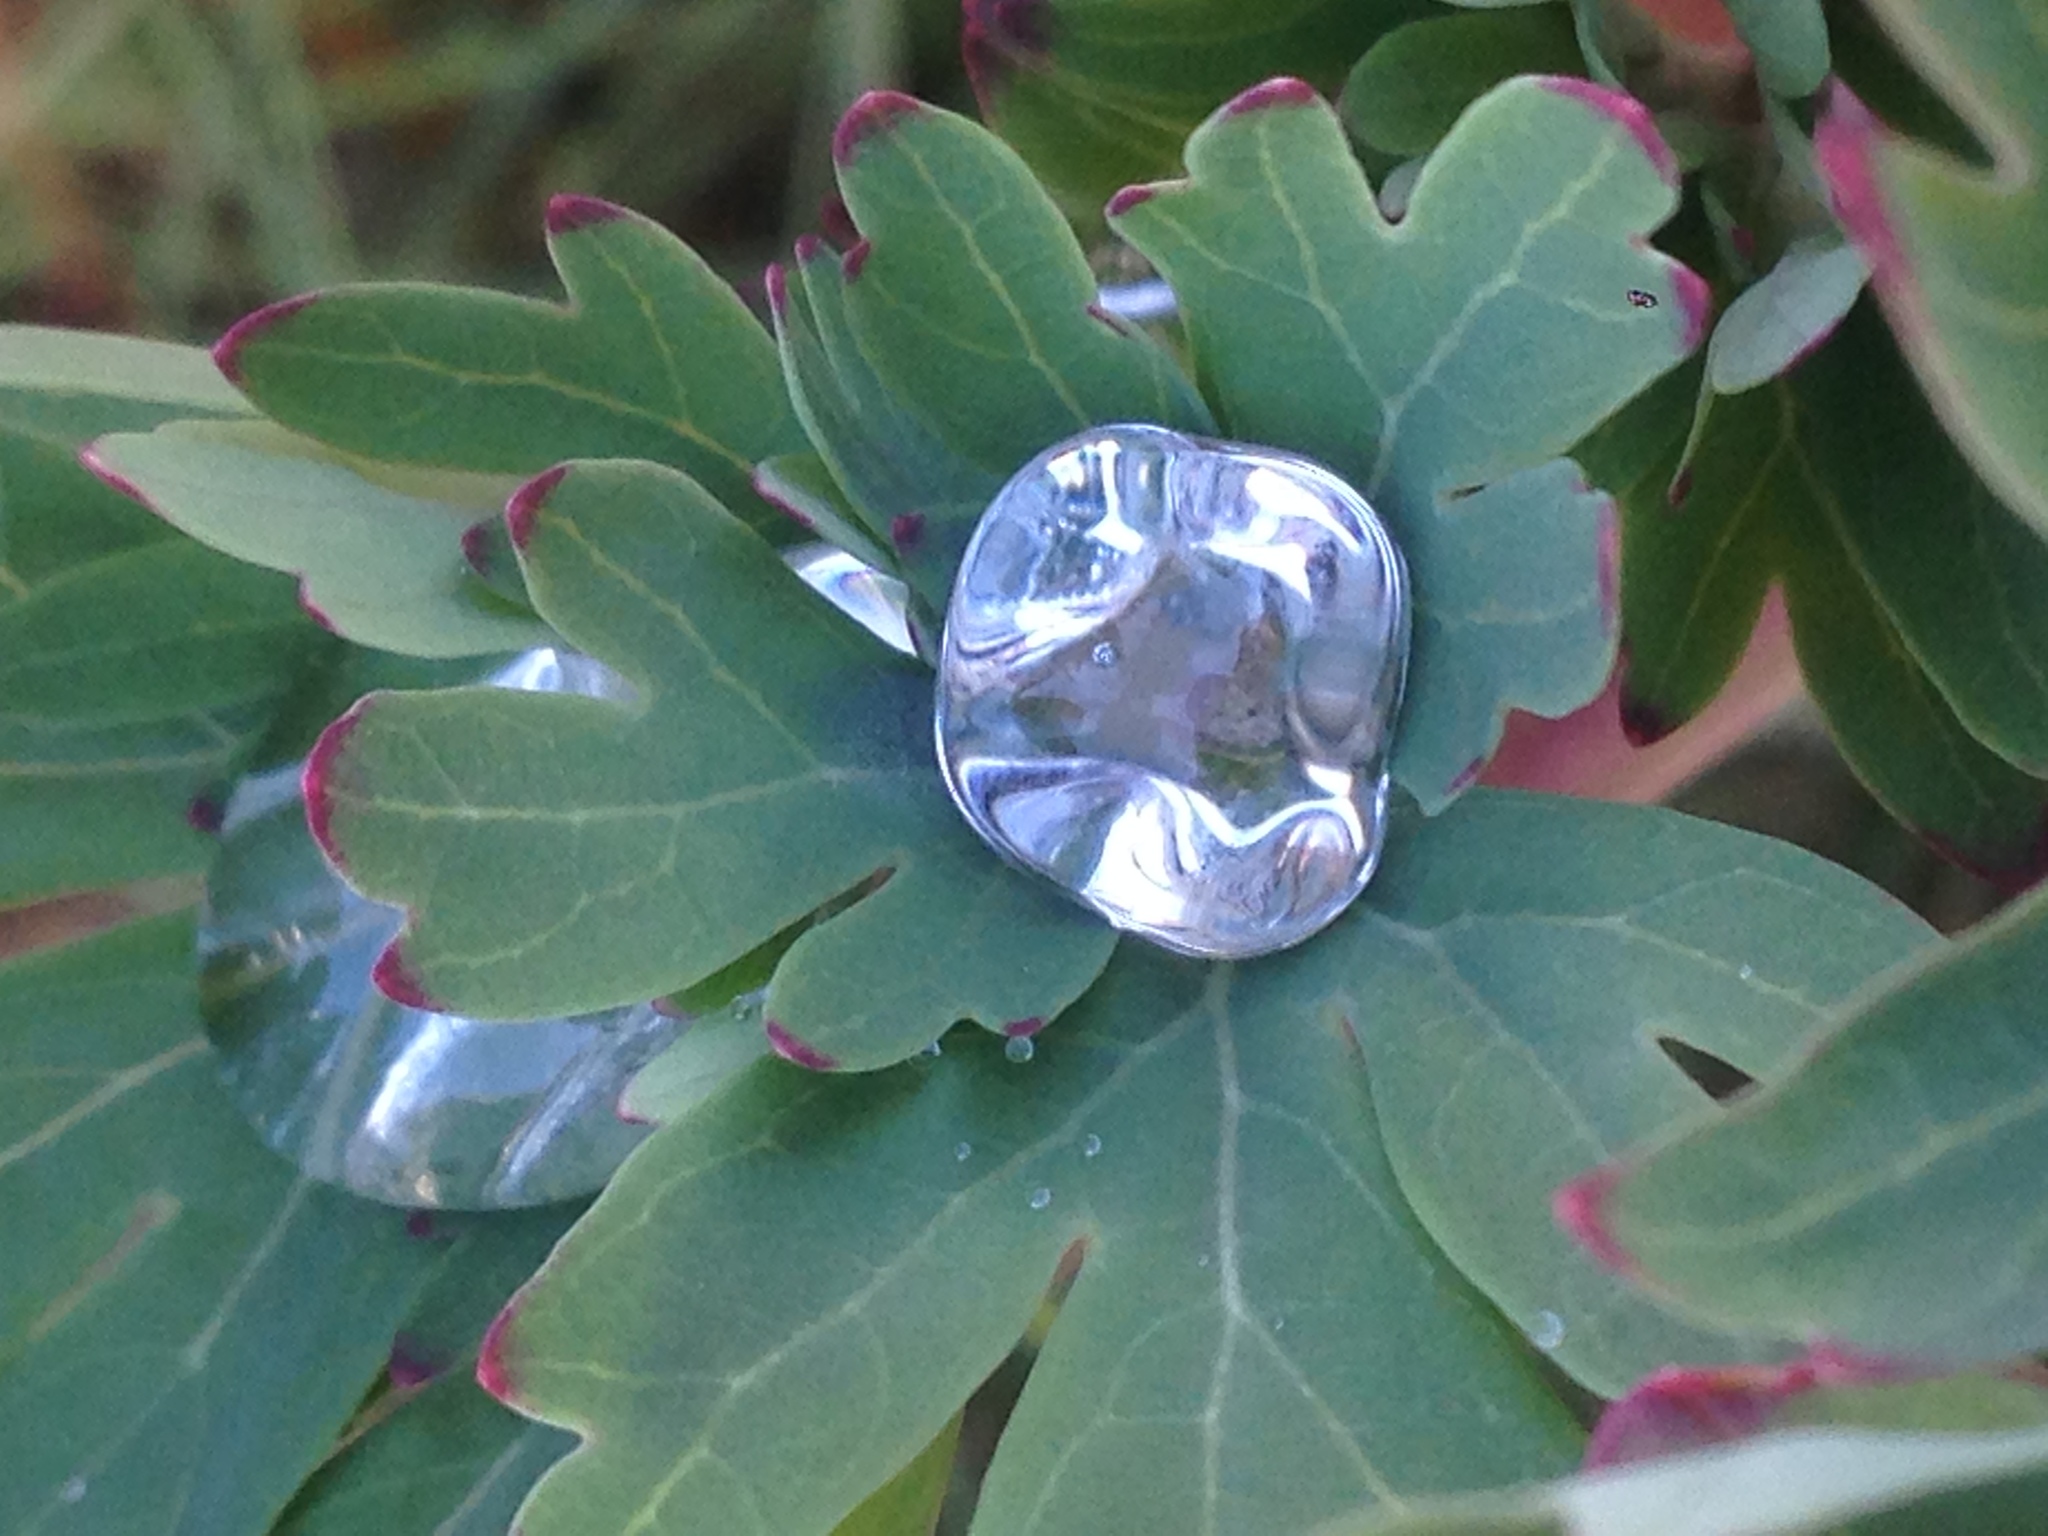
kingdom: Plantae
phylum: Tracheophyta
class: Magnoliopsida
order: Saxifragales
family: Paeoniaceae
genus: Paeonia
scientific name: Paeonia californica
